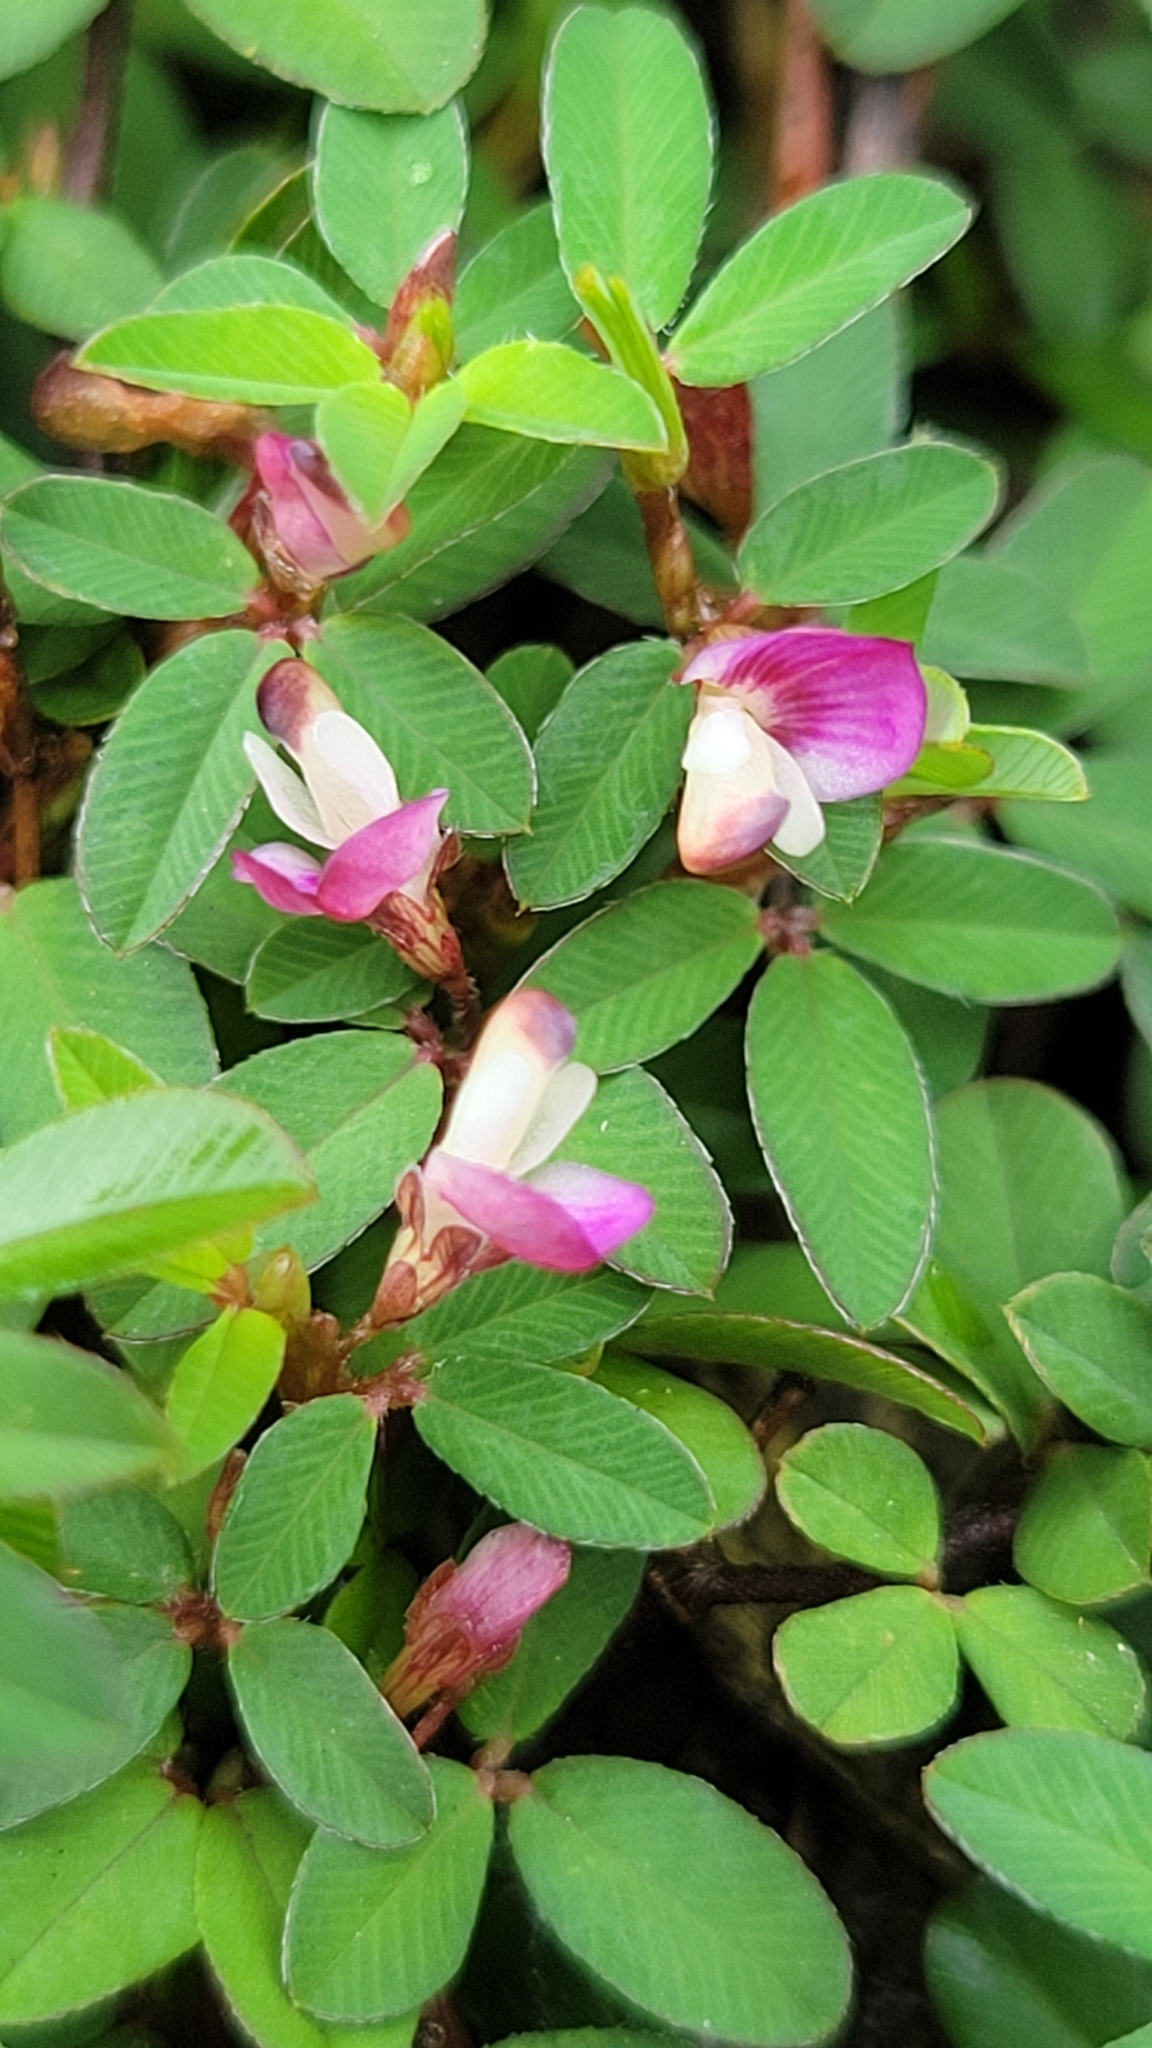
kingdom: Plantae
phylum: Tracheophyta
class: Magnoliopsida
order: Fabales
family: Fabaceae
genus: Kummerowia
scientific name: Kummerowia striata
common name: Japanese clover
